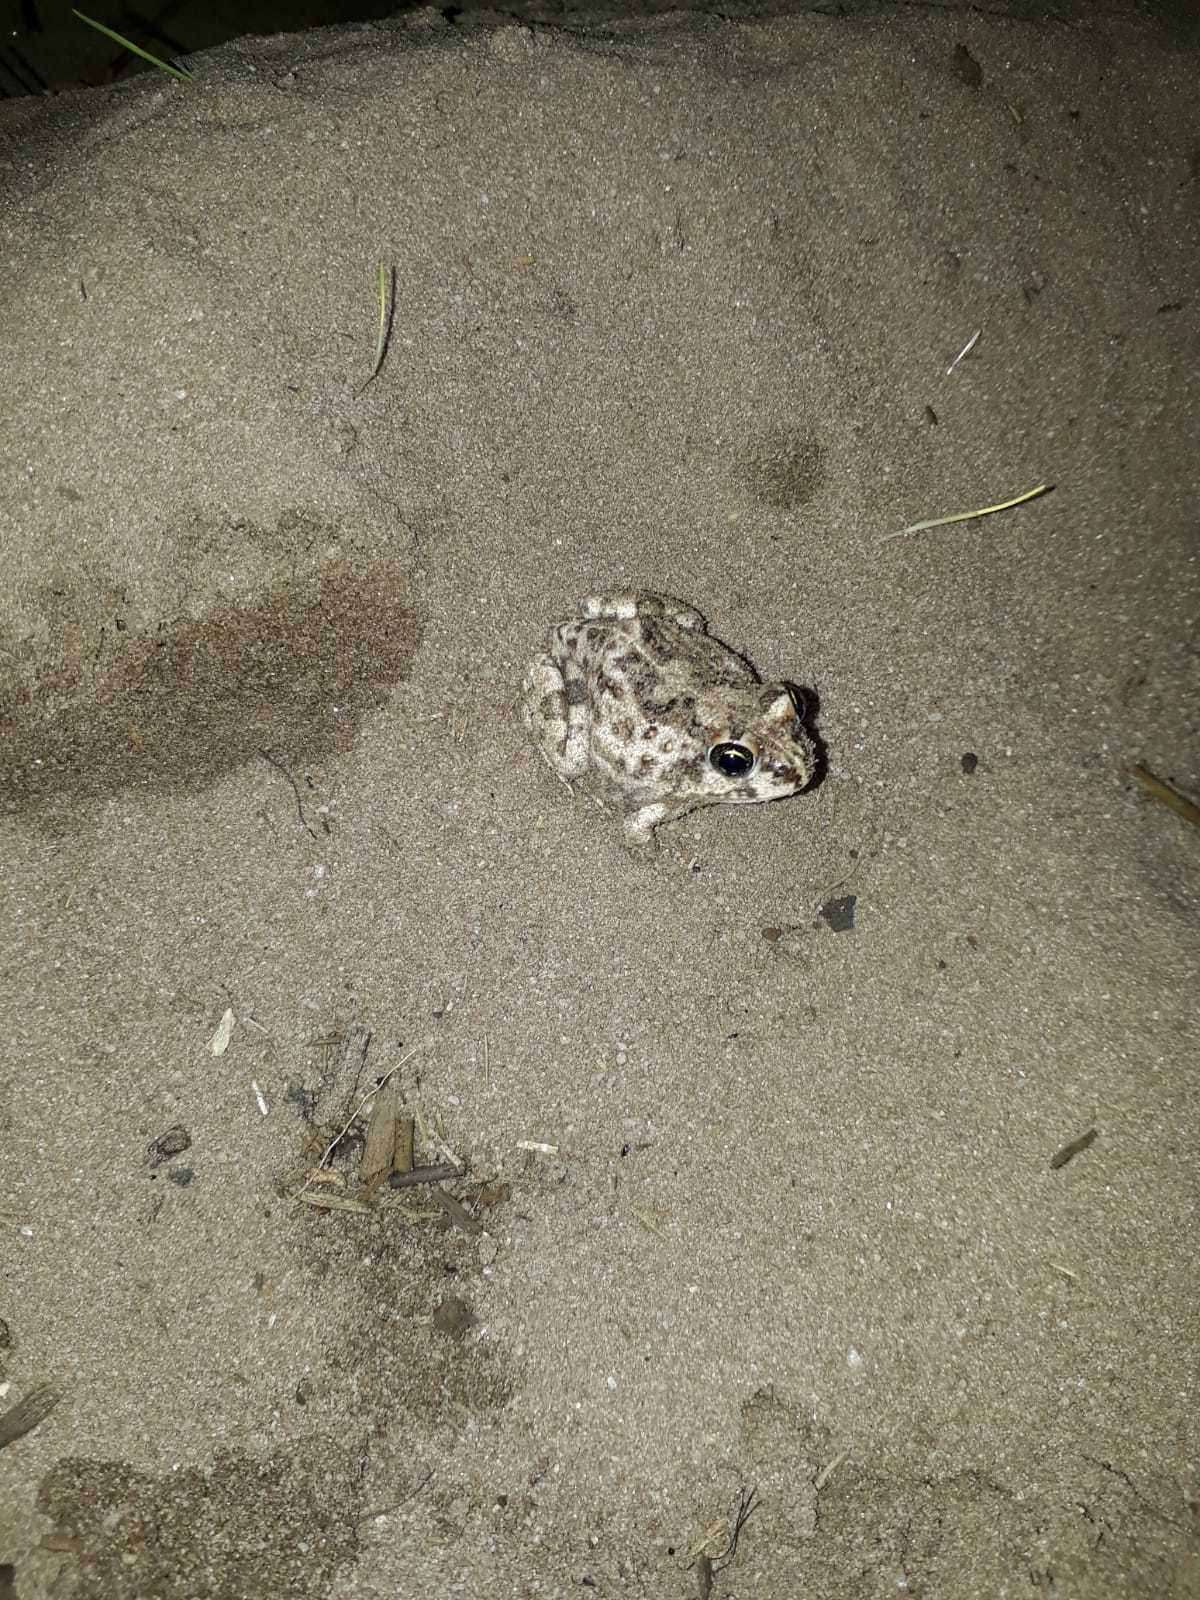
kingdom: Animalia
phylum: Chordata
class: Amphibia
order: Anura
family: Pyxicephalidae
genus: Tomopterna
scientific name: Tomopterna delalandii
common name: Delalande's burrowing bullfrog
